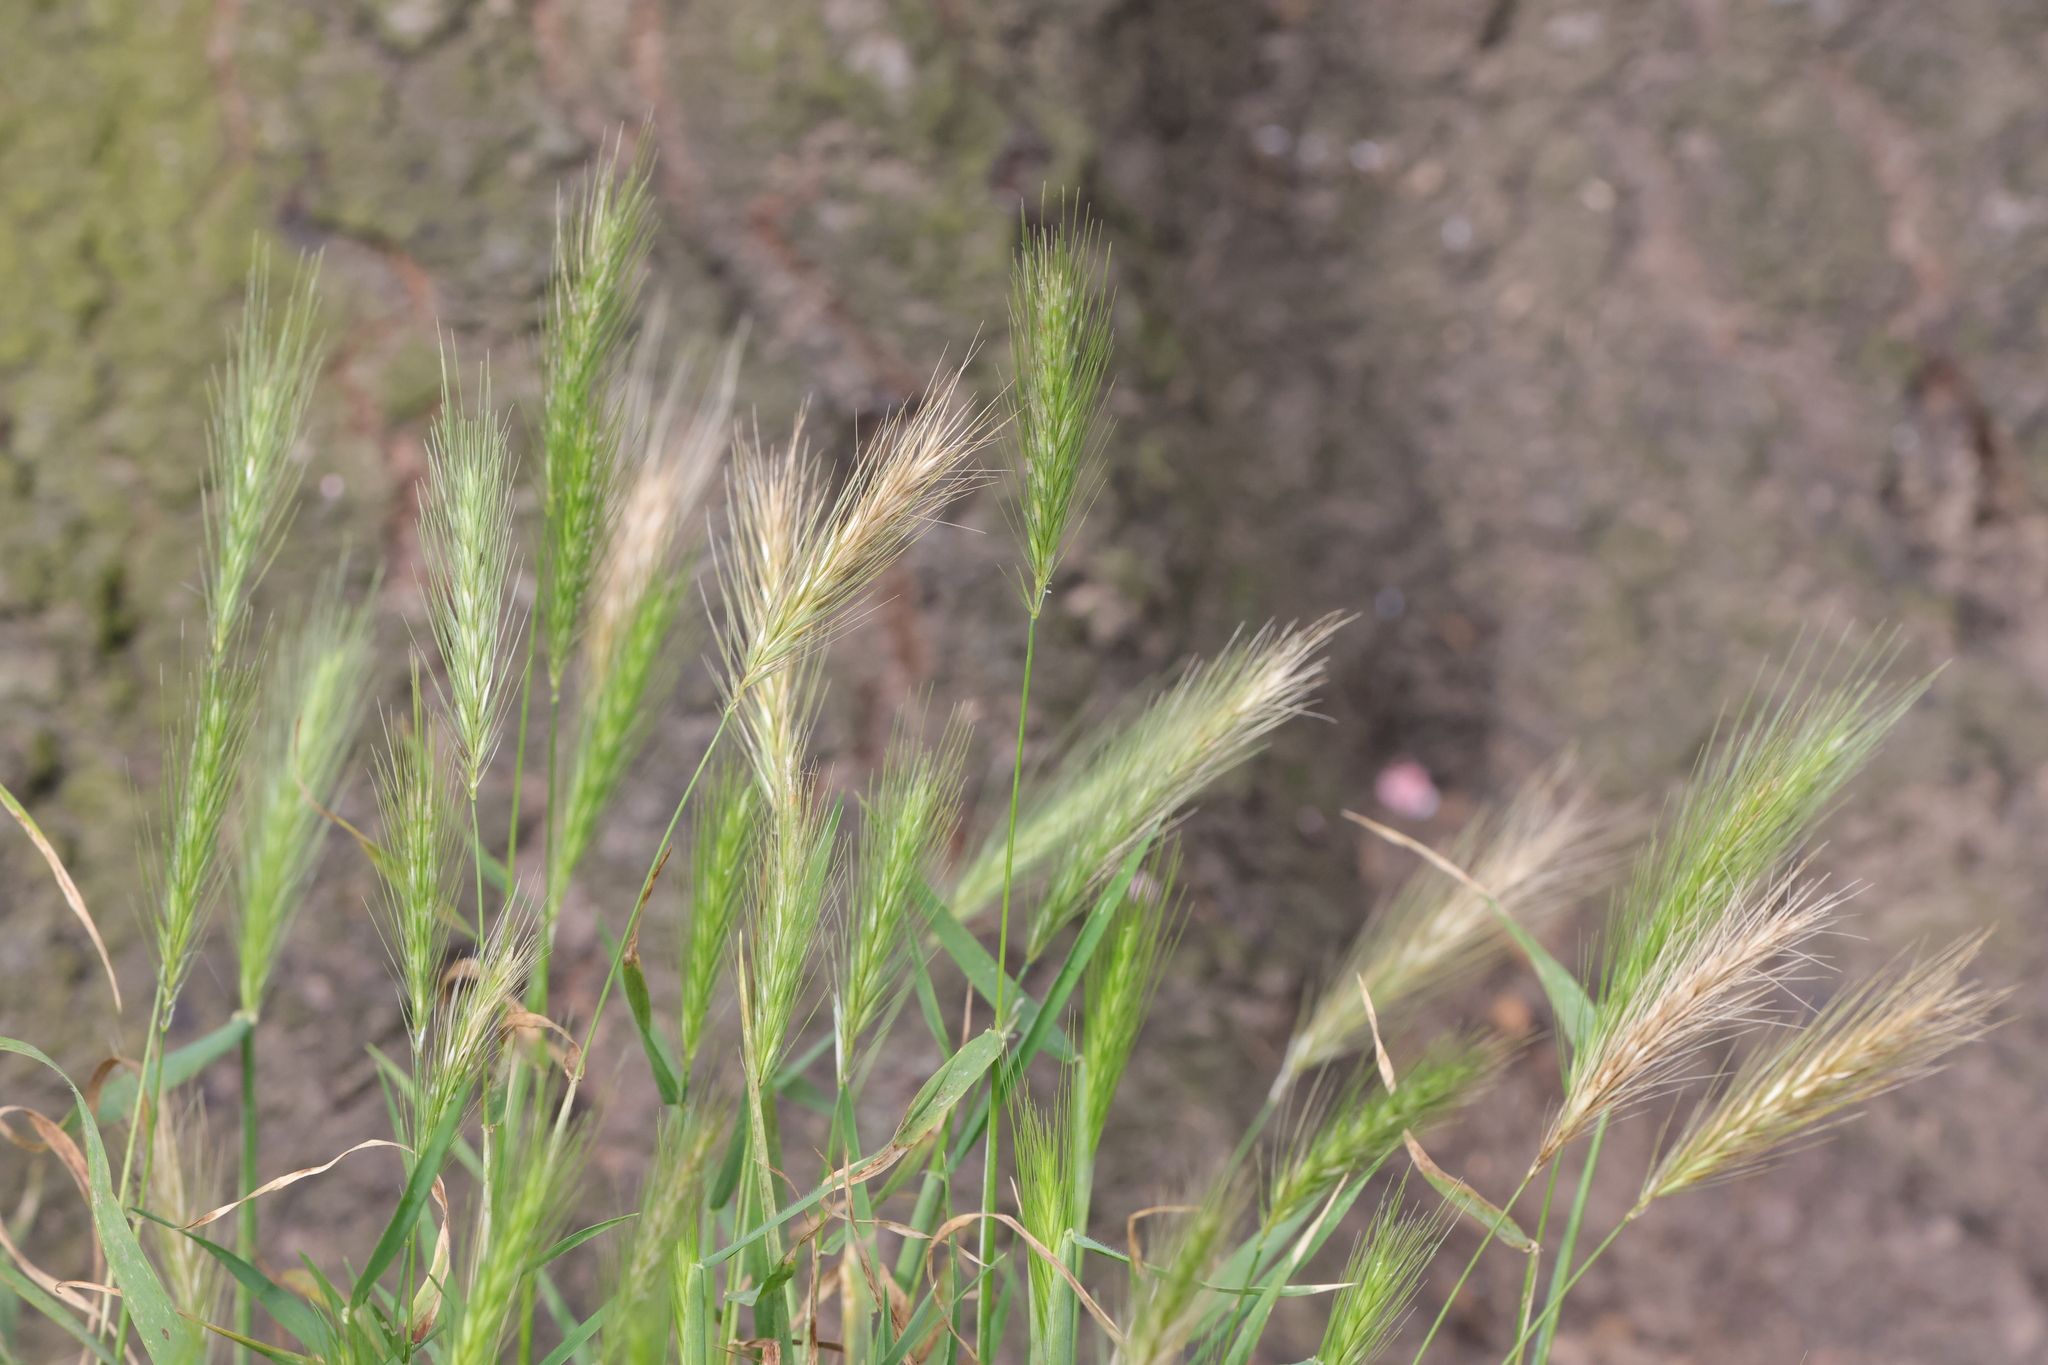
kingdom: Plantae
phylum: Tracheophyta
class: Liliopsida
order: Poales
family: Poaceae
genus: Hordeum
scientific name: Hordeum murinum
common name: Wall barley
